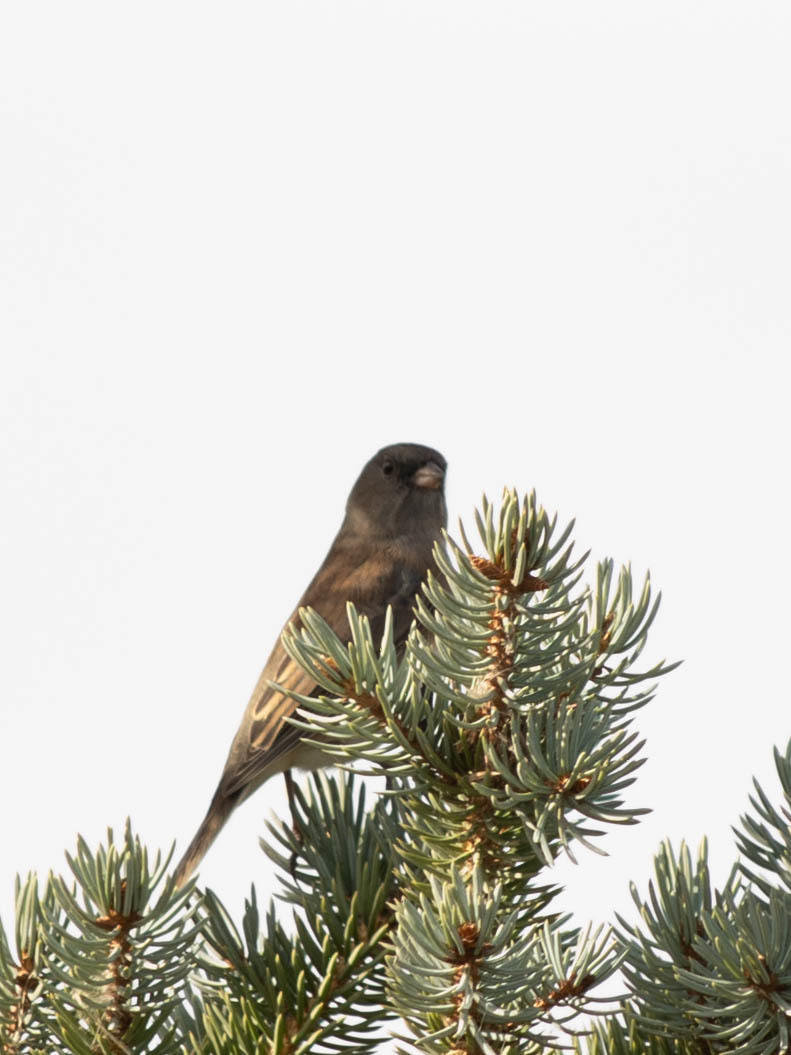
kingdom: Animalia
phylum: Chordata
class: Aves
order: Passeriformes
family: Passerellidae
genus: Junco
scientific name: Junco hyemalis
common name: Dark-eyed junco
